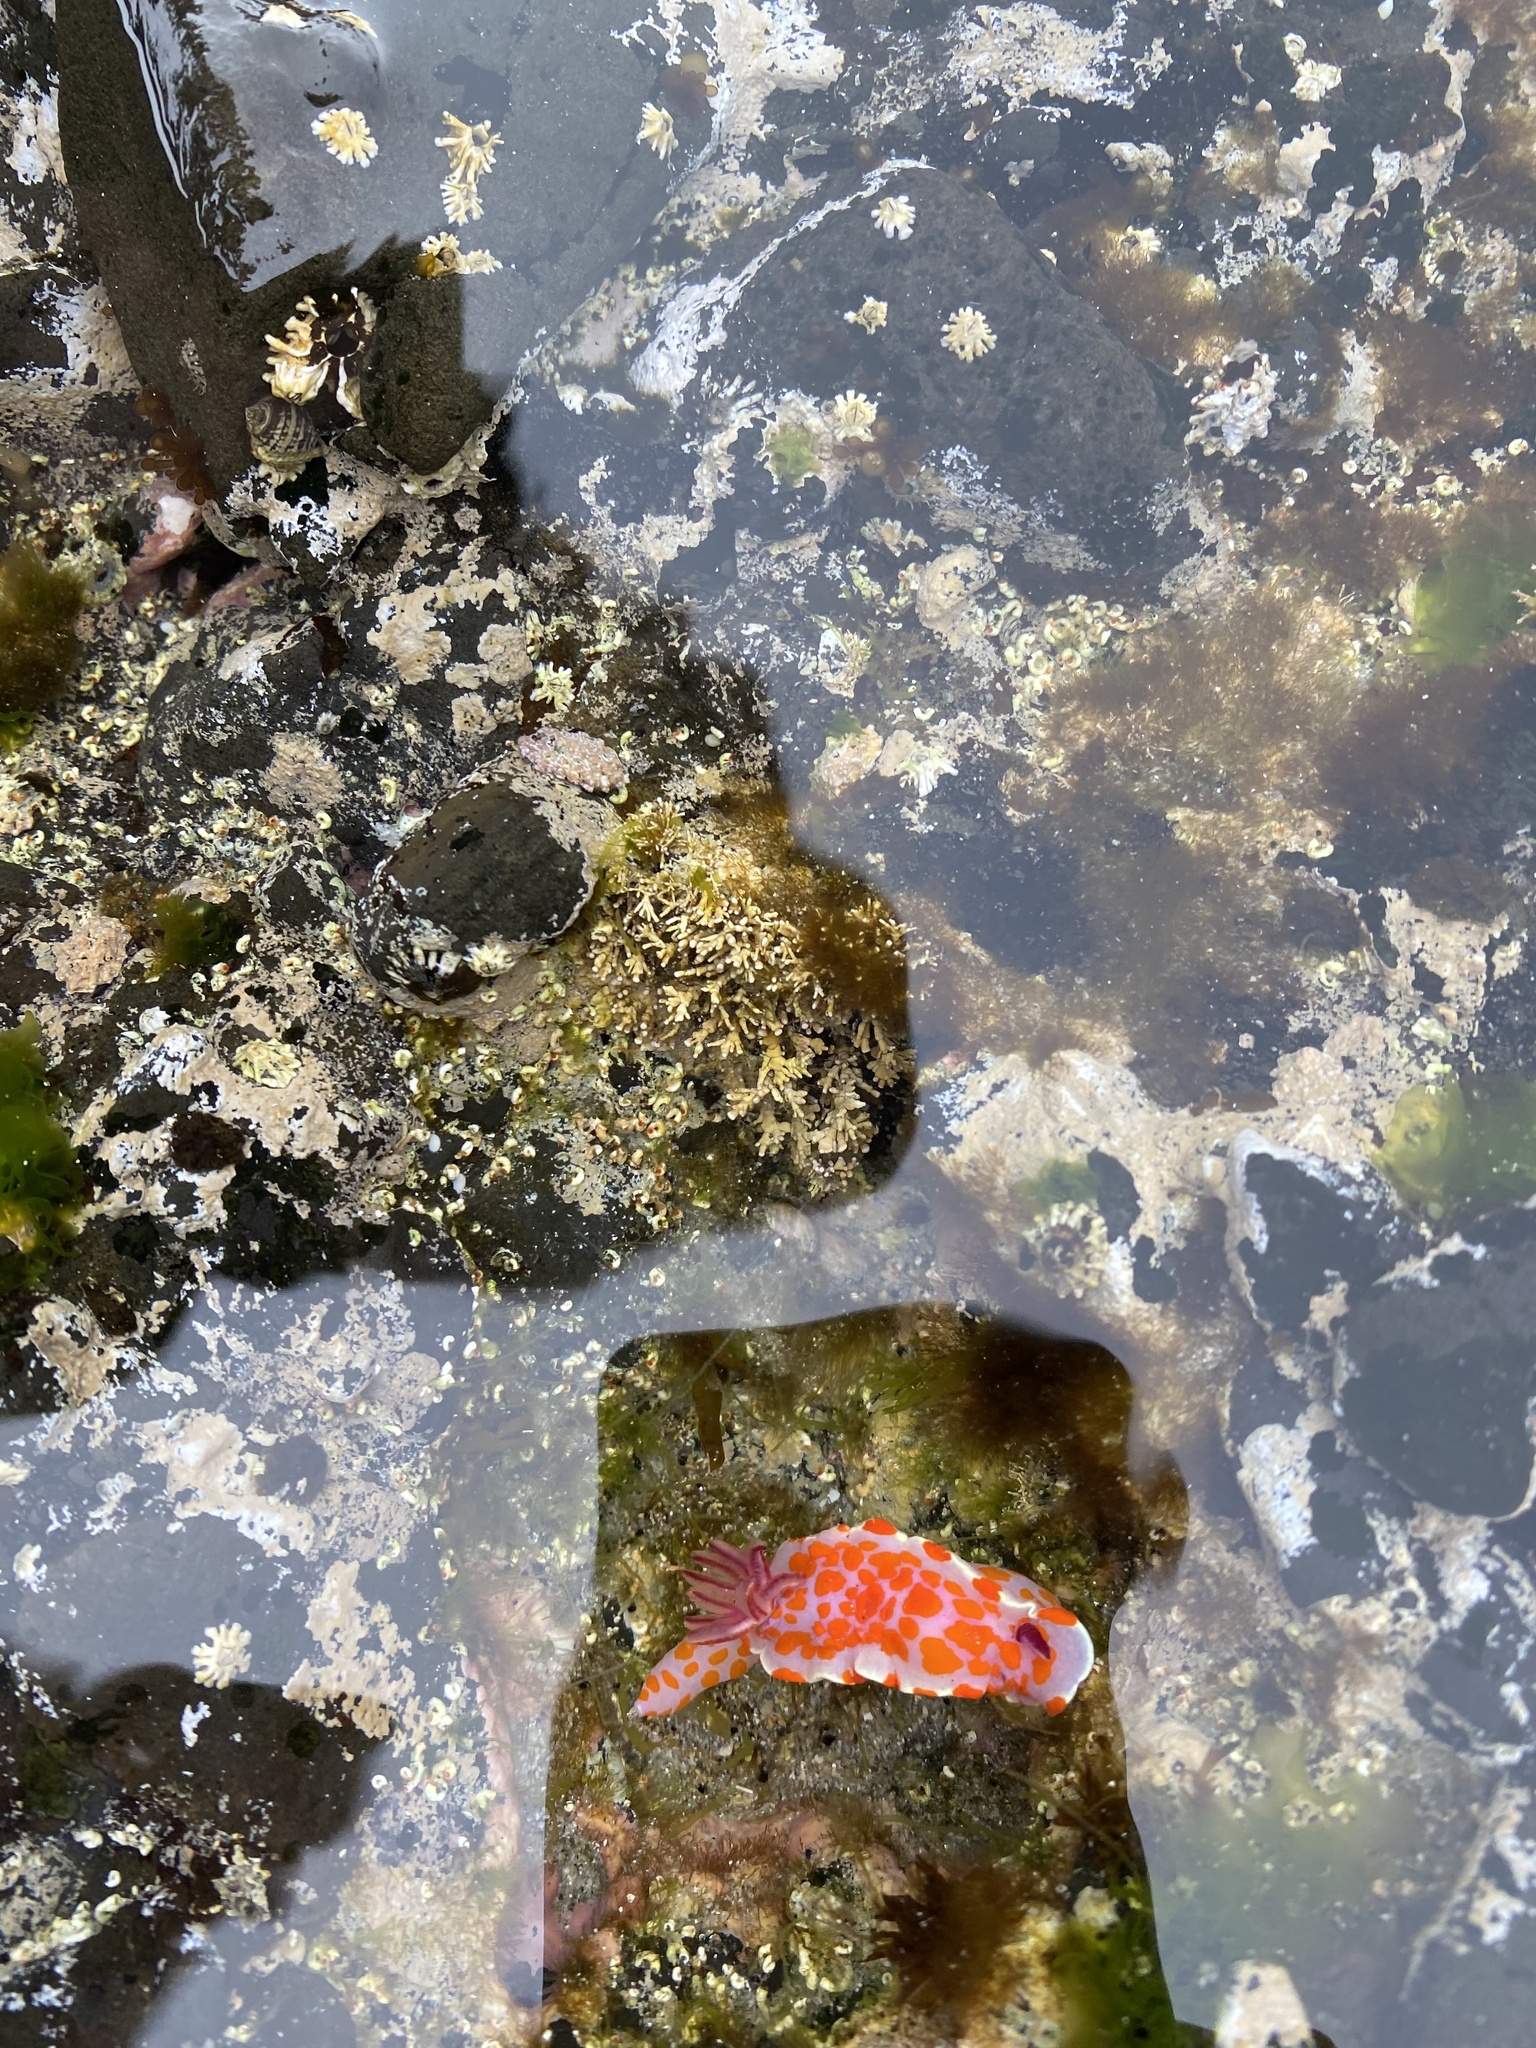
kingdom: Animalia
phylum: Mollusca
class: Gastropoda
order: Nudibranchia
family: Chromodorididae
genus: Ceratosoma
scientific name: Ceratosoma amoenum
